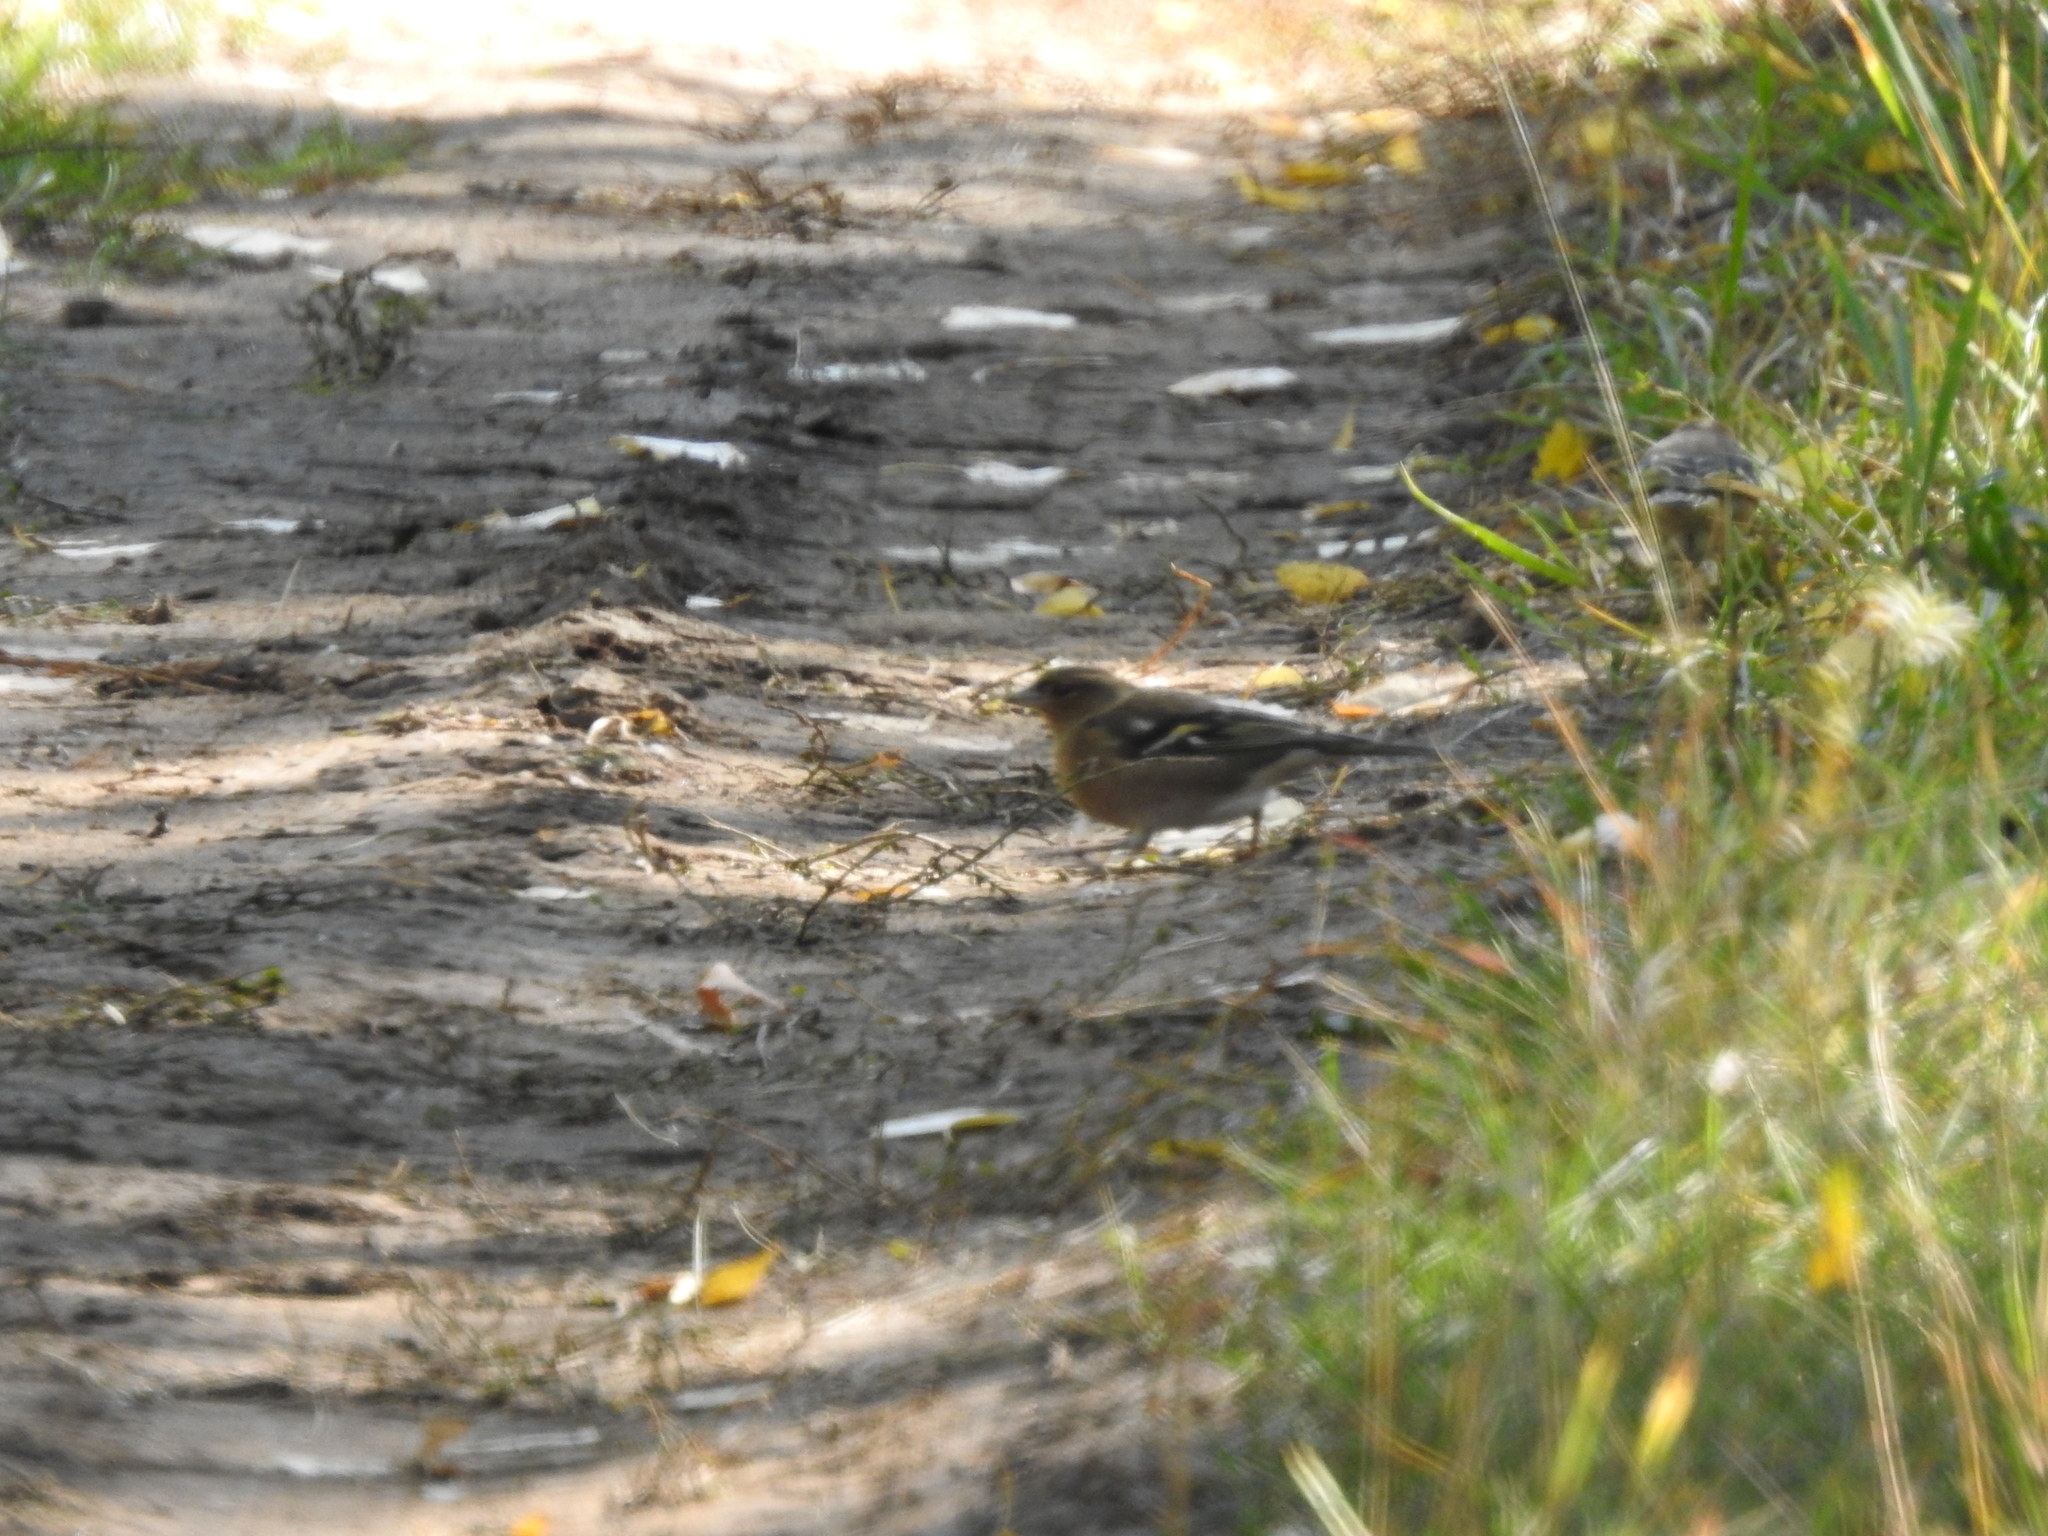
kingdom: Animalia
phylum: Chordata
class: Aves
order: Passeriformes
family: Fringillidae
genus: Fringilla
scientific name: Fringilla coelebs
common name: Common chaffinch
